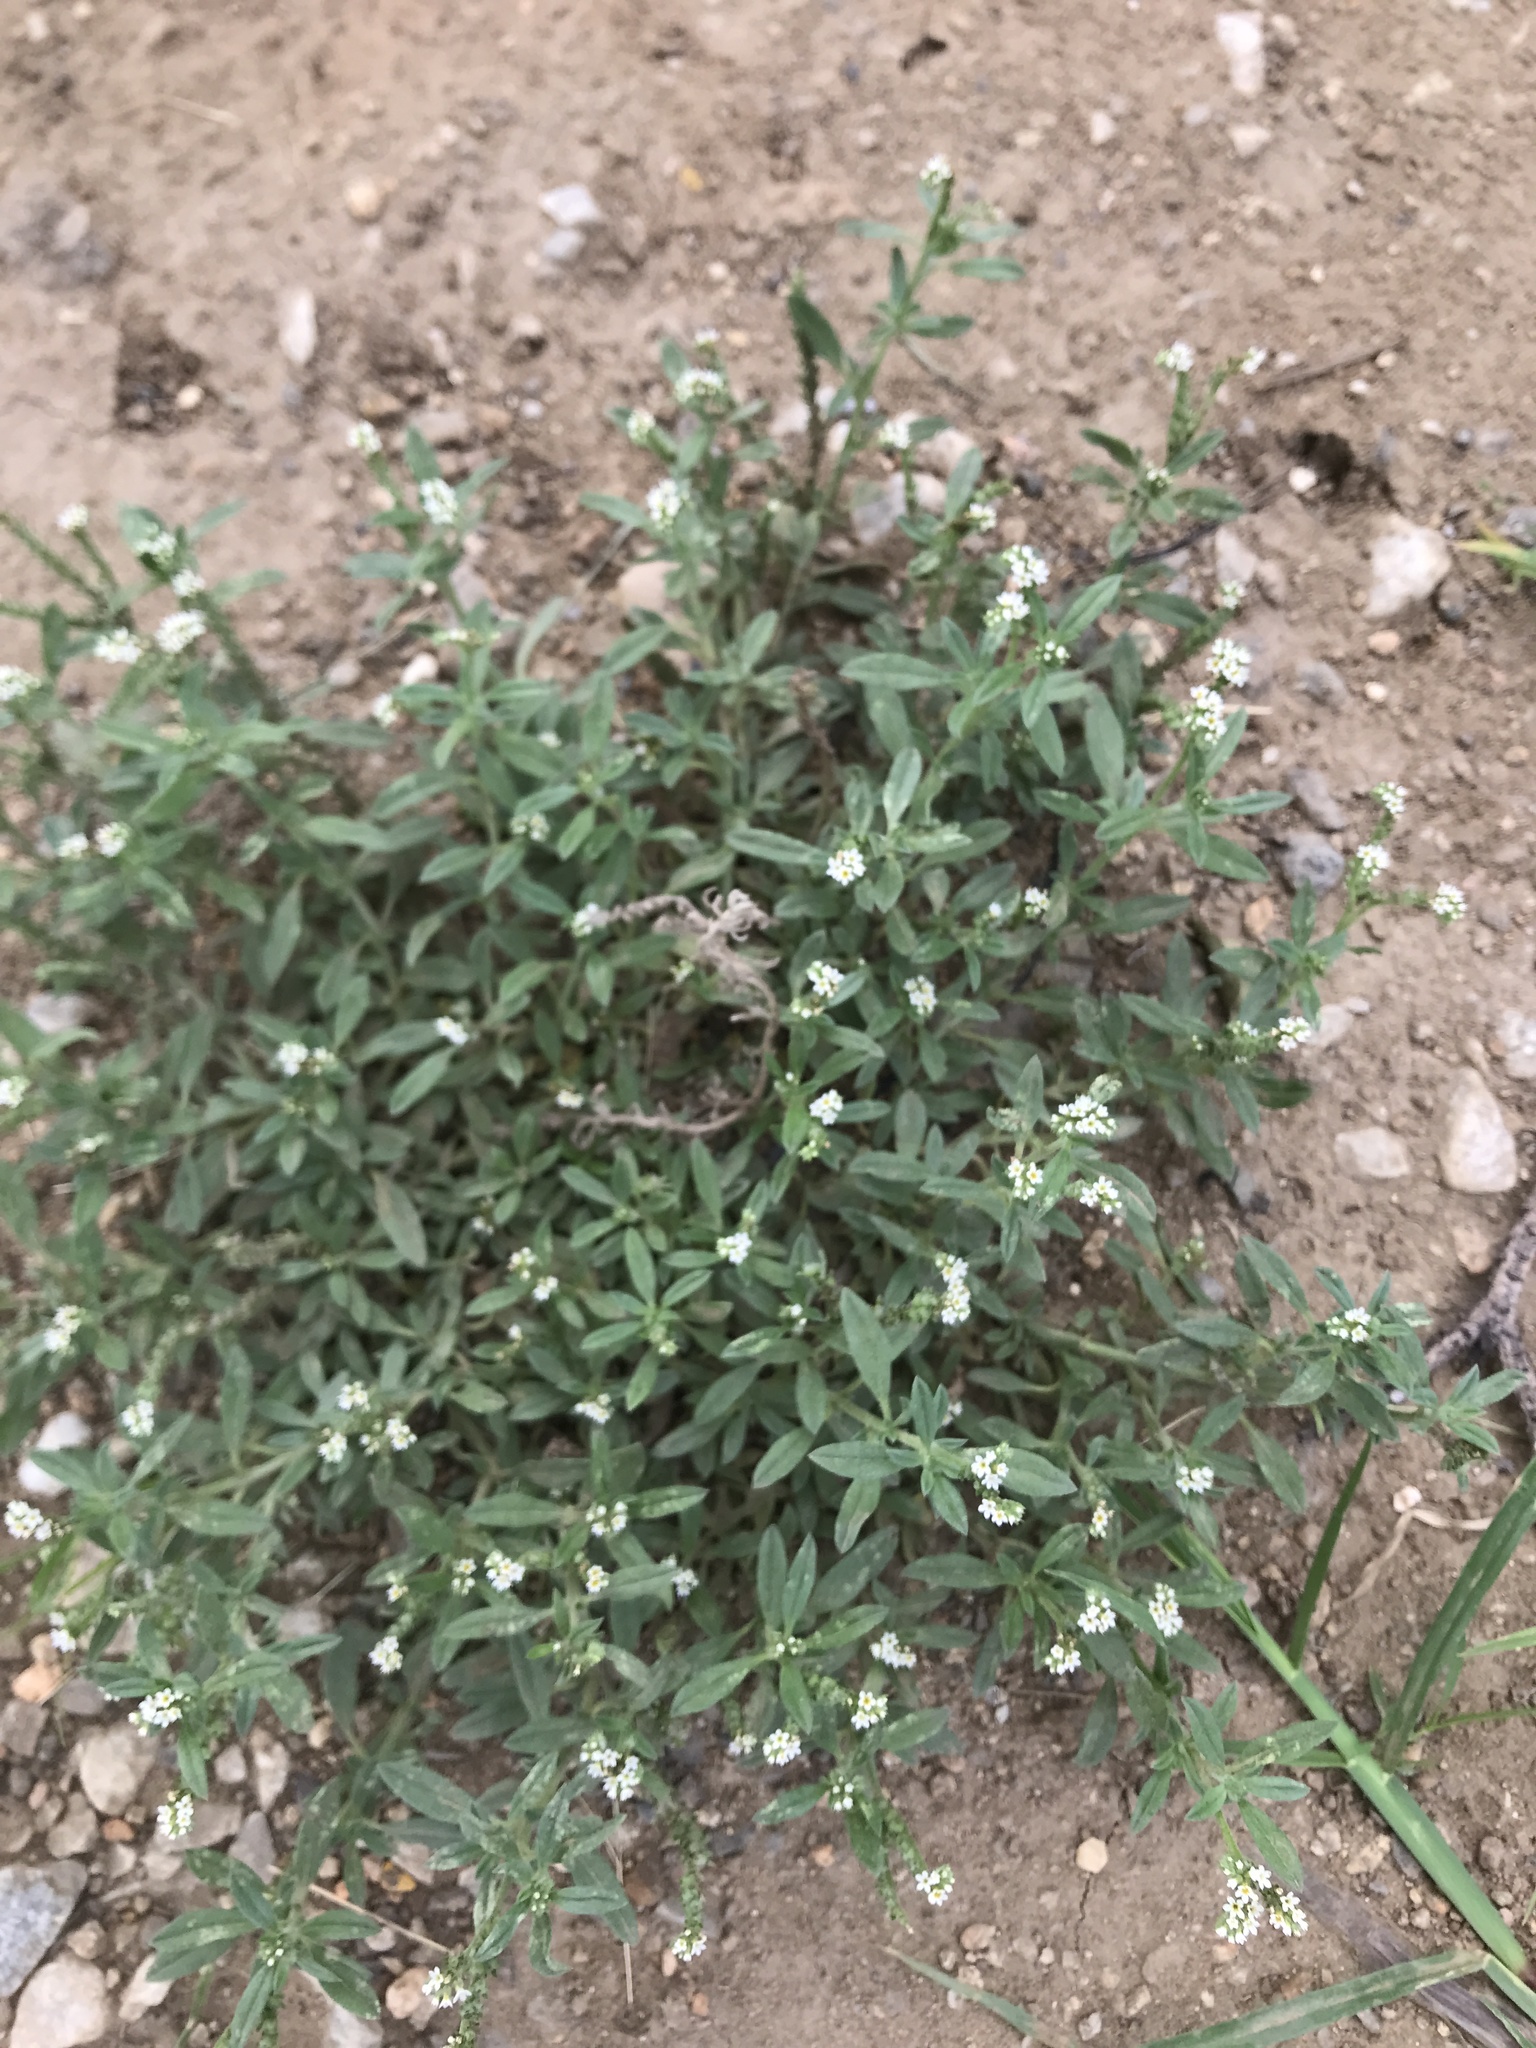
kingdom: Plantae
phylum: Tracheophyta
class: Magnoliopsida
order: Boraginales
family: Heliotropiaceae
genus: Euploca
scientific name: Euploca procumbens
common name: Fourspike heliotrope
